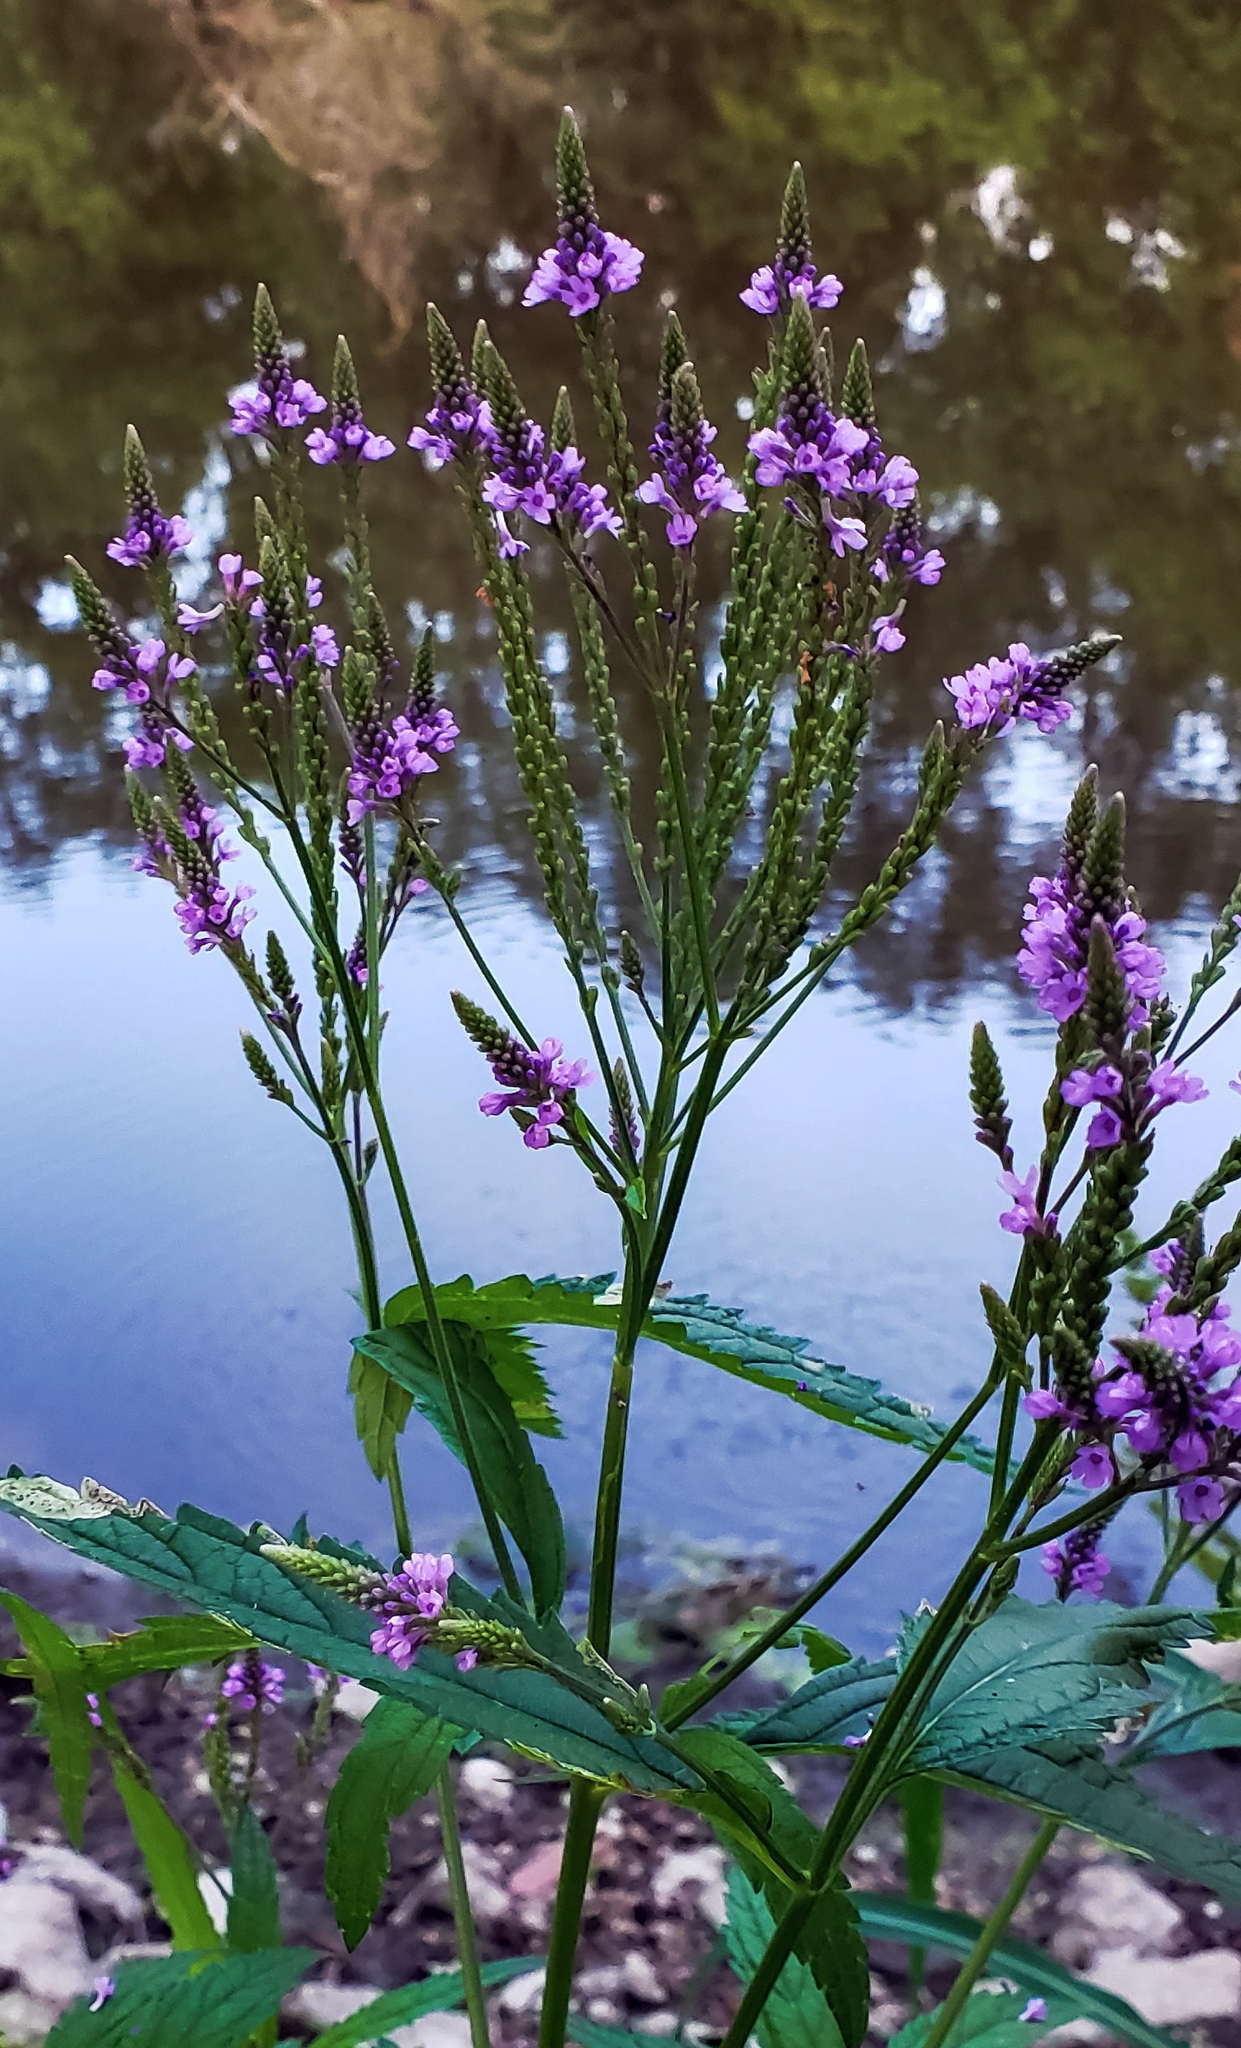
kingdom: Plantae
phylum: Tracheophyta
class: Magnoliopsida
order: Lamiales
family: Verbenaceae
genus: Verbena
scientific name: Verbena hastata
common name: American blue vervain
